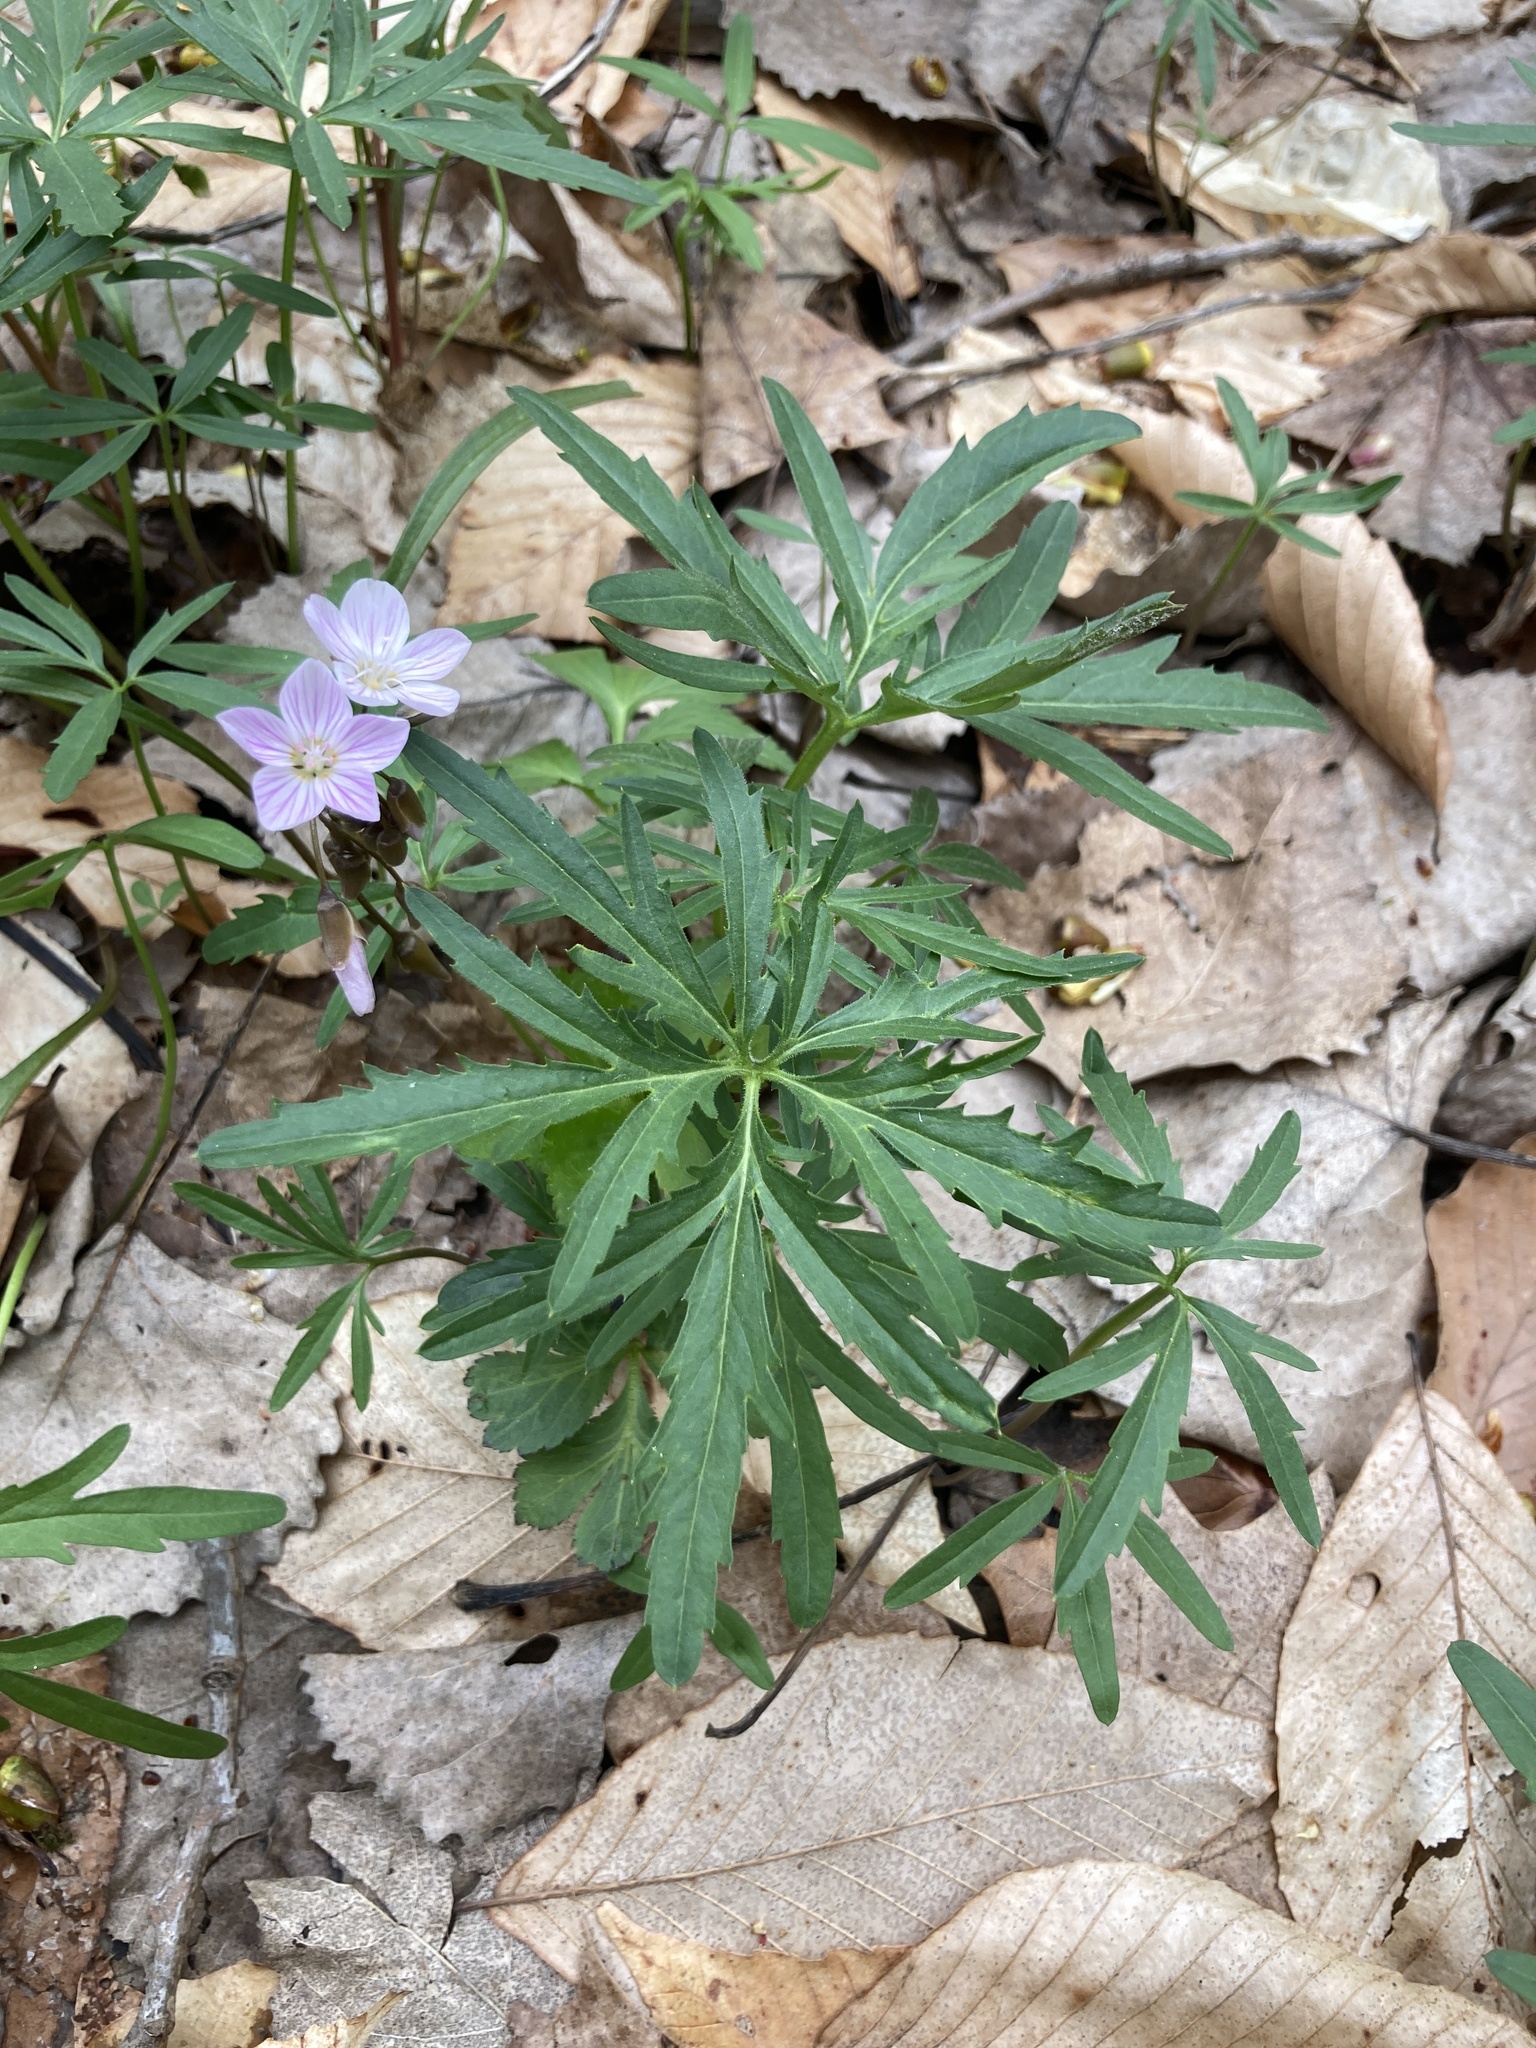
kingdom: Plantae
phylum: Tracheophyta
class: Magnoliopsida
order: Brassicales
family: Brassicaceae
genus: Cardamine
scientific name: Cardamine concatenata
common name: Cut-leaf toothcup
